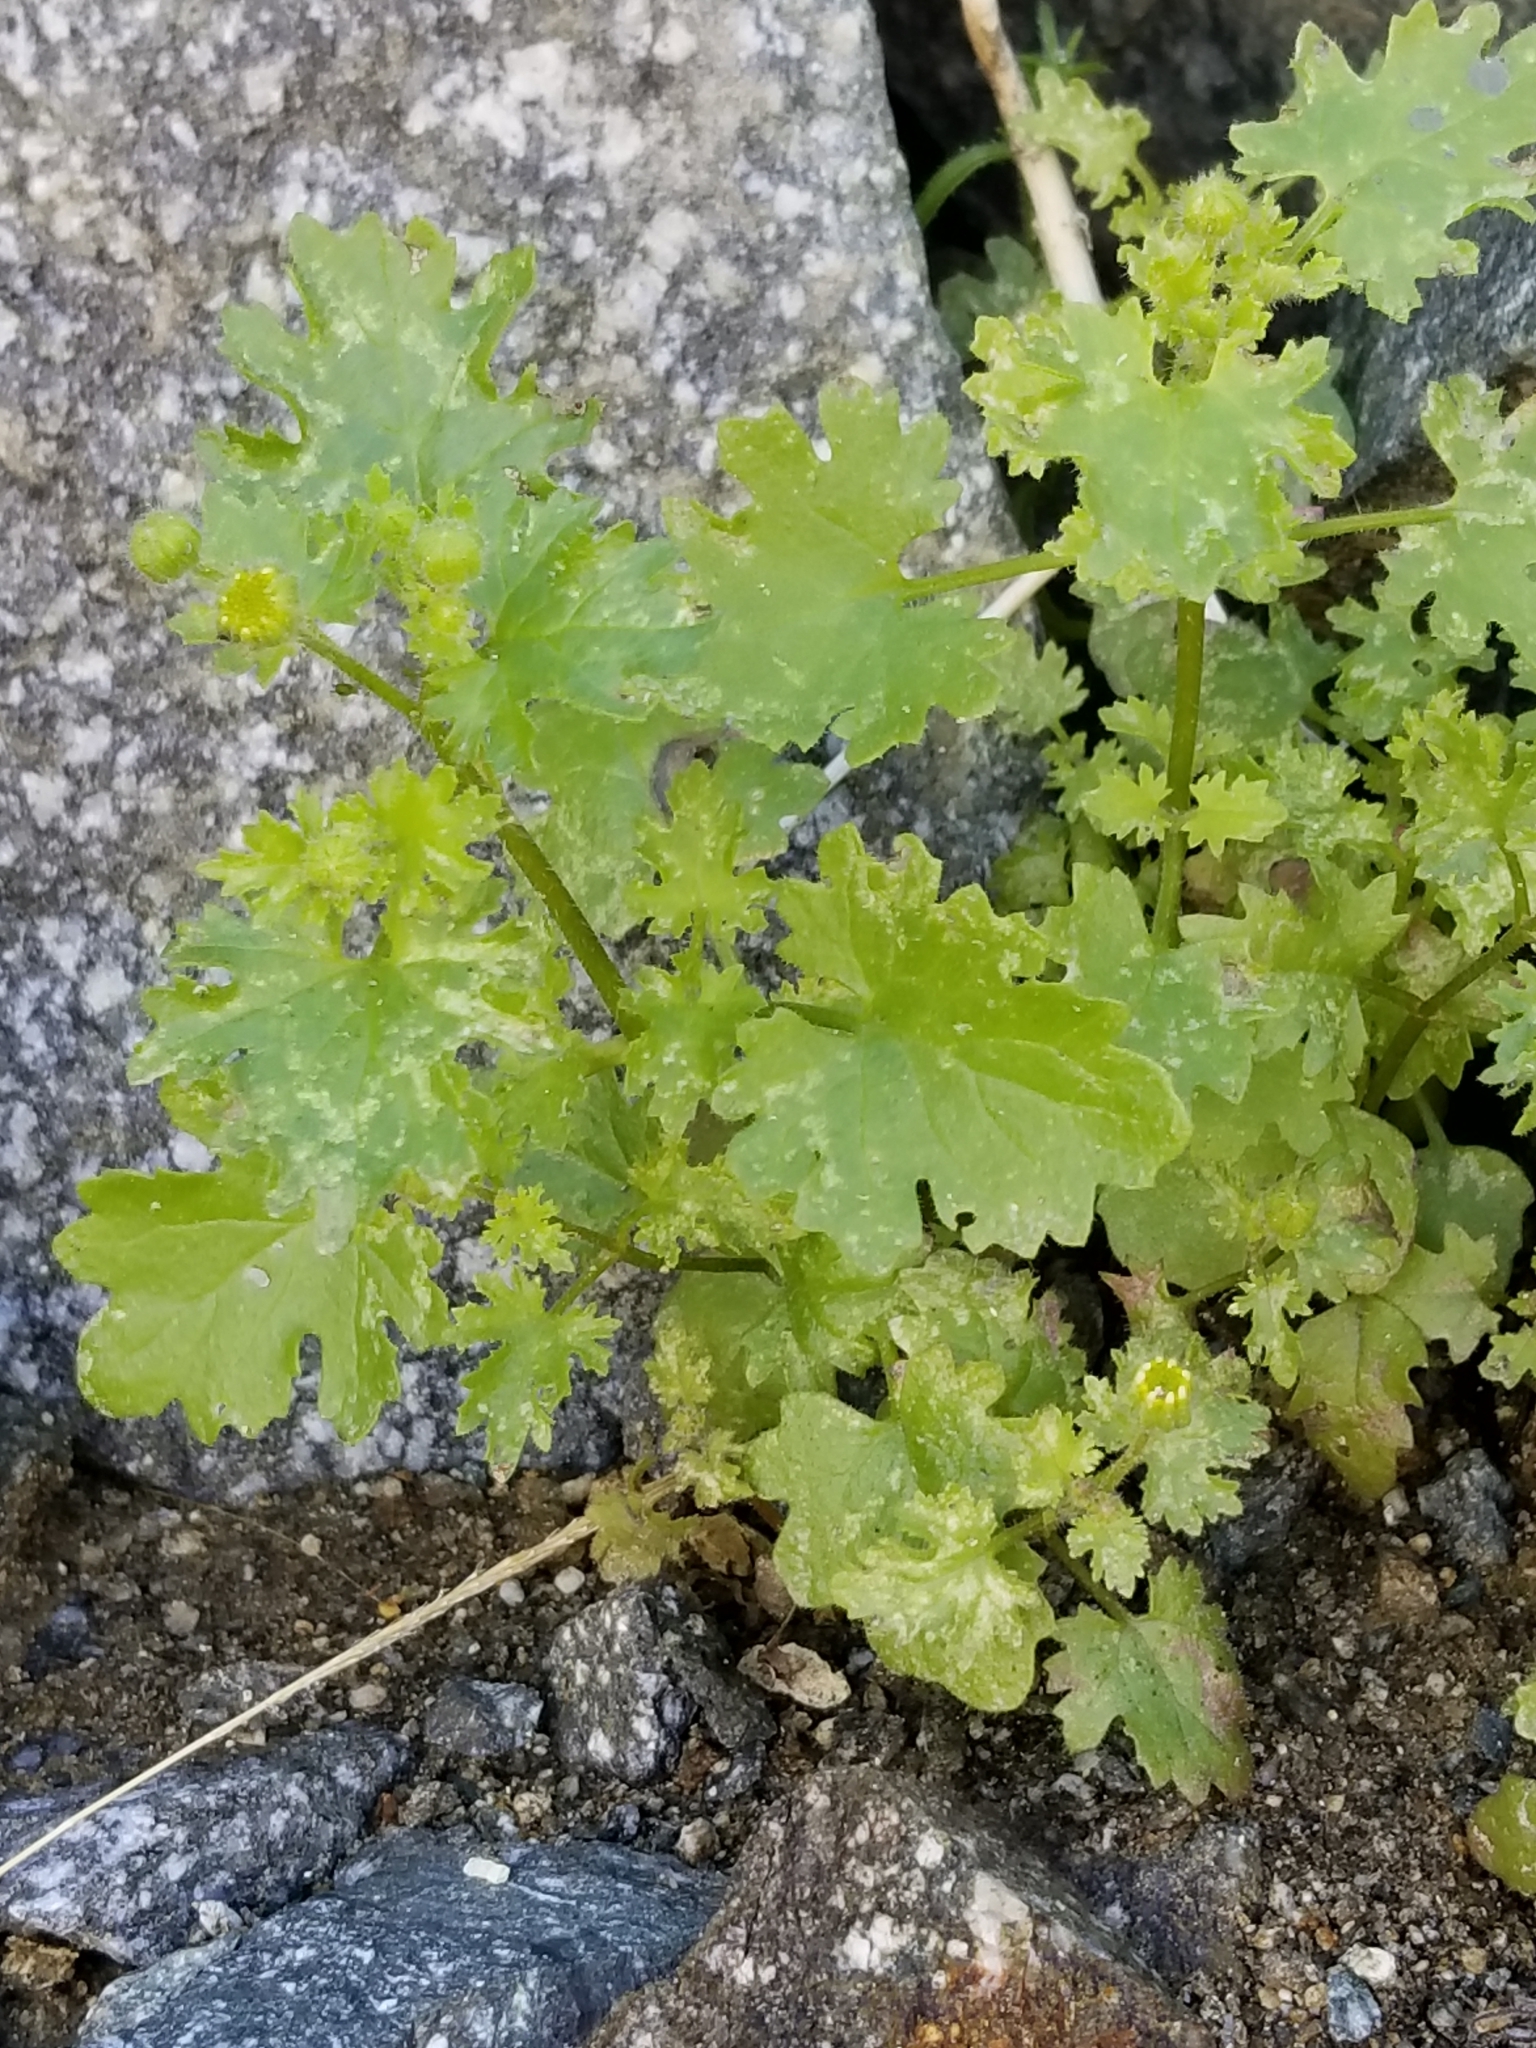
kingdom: Plantae
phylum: Tracheophyta
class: Magnoliopsida
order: Asterales
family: Asteraceae
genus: Laphamia
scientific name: Laphamia emoryi
